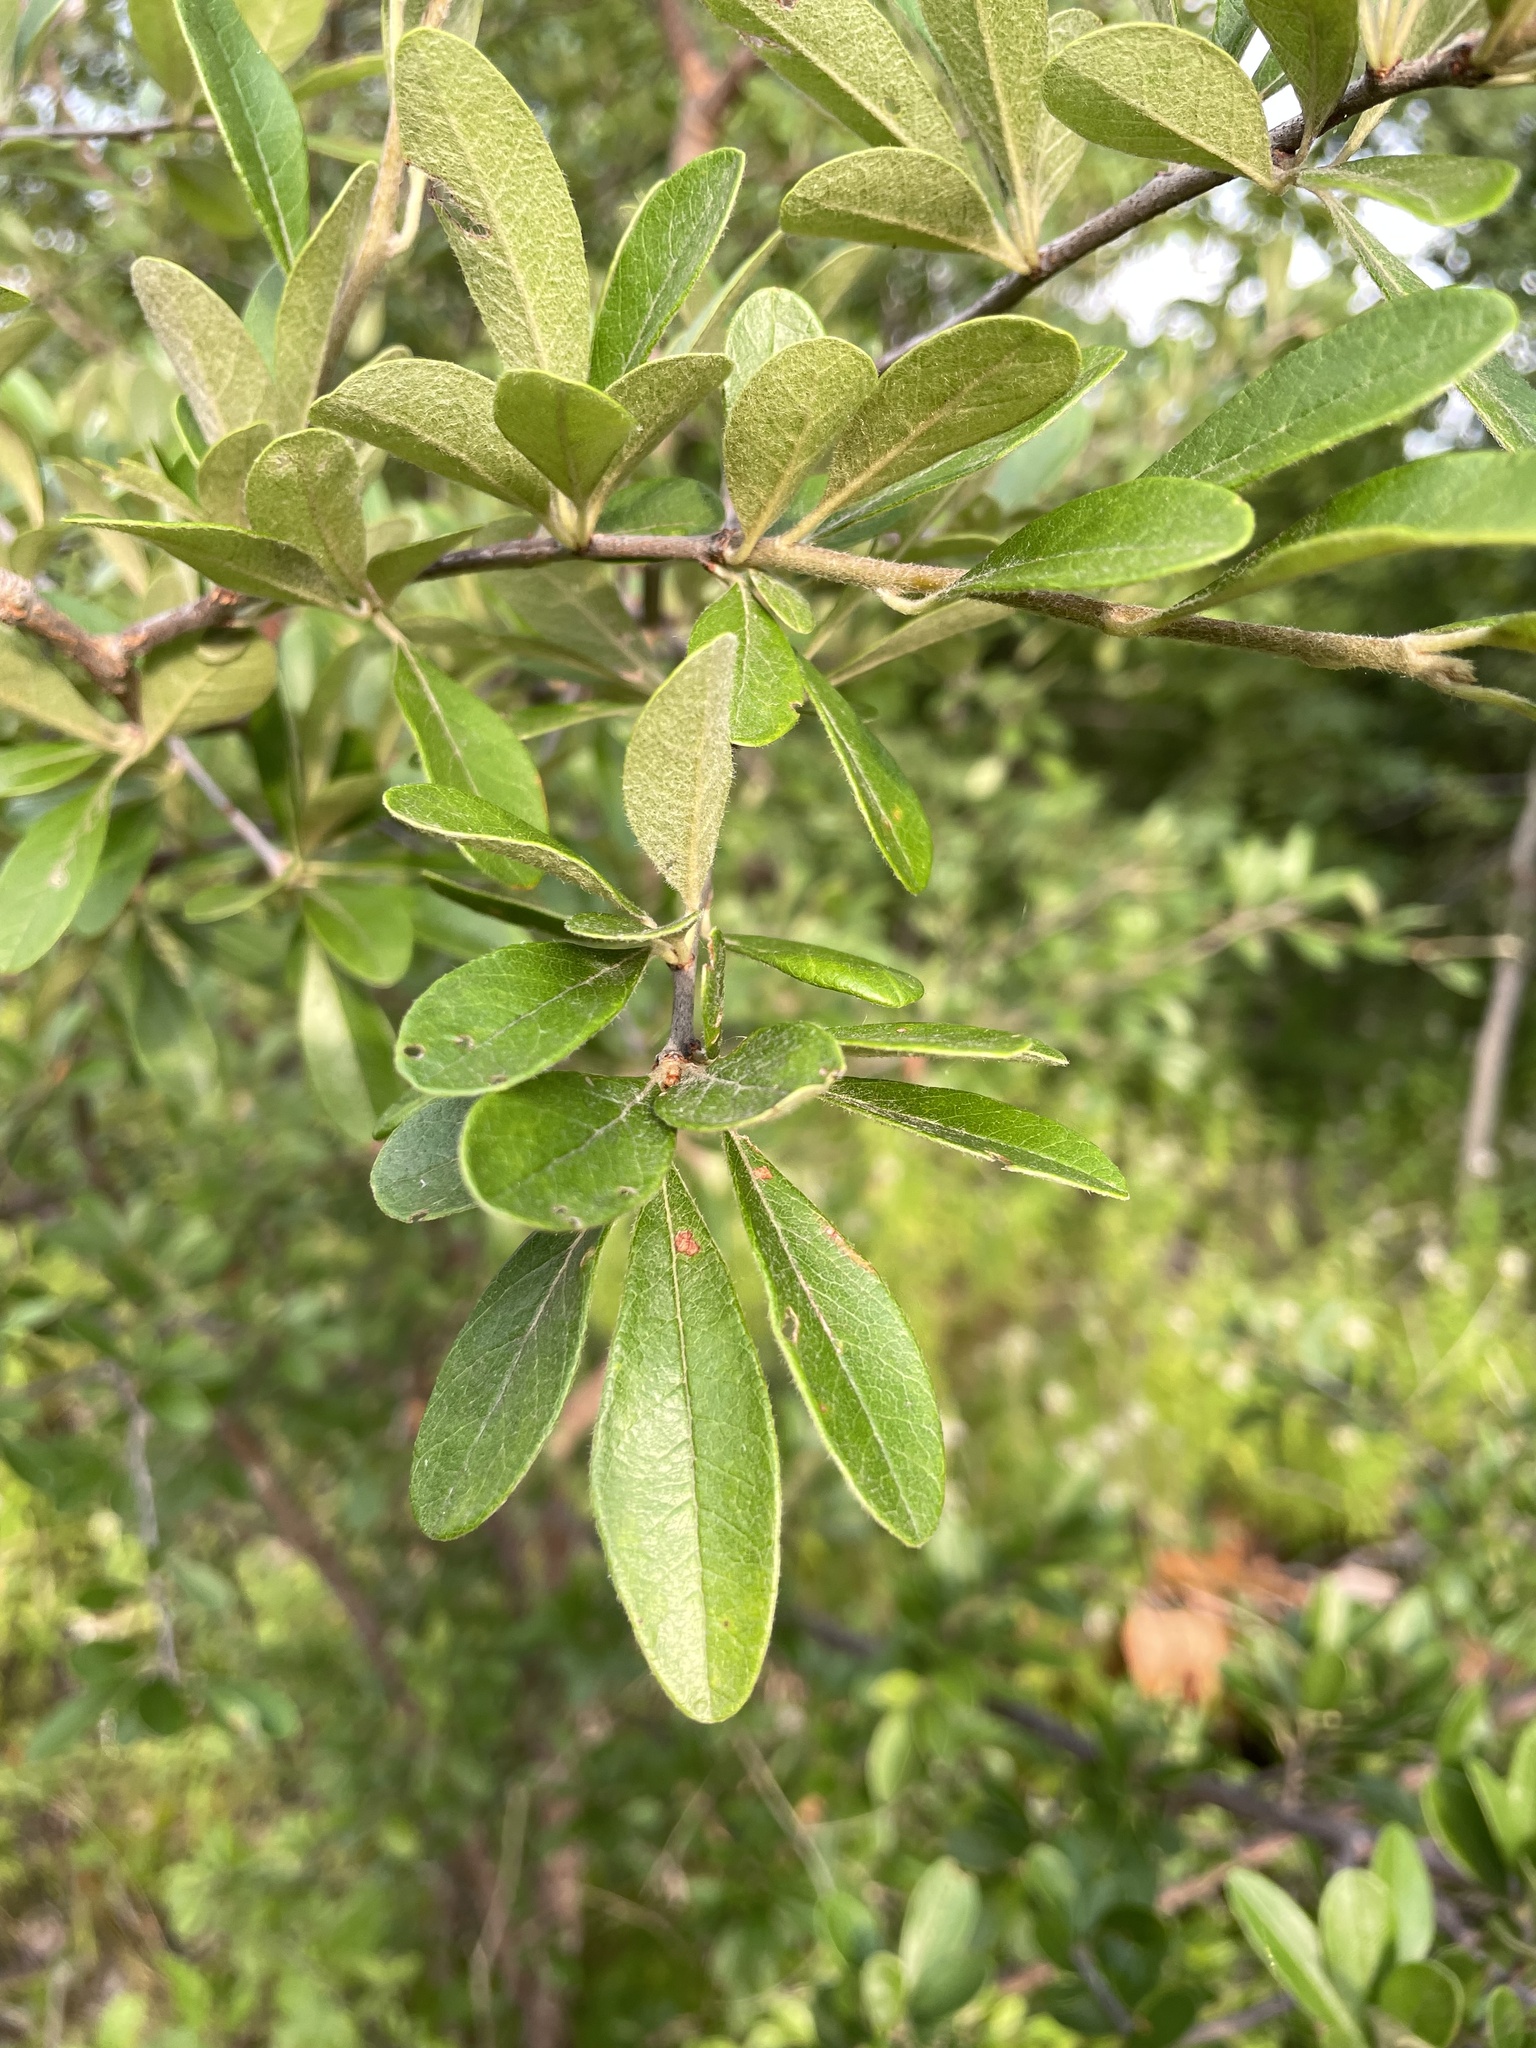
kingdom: Plantae
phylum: Tracheophyta
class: Magnoliopsida
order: Ericales
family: Sapotaceae
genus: Sideroxylon
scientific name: Sideroxylon lanuginosum
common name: Chittamwood
